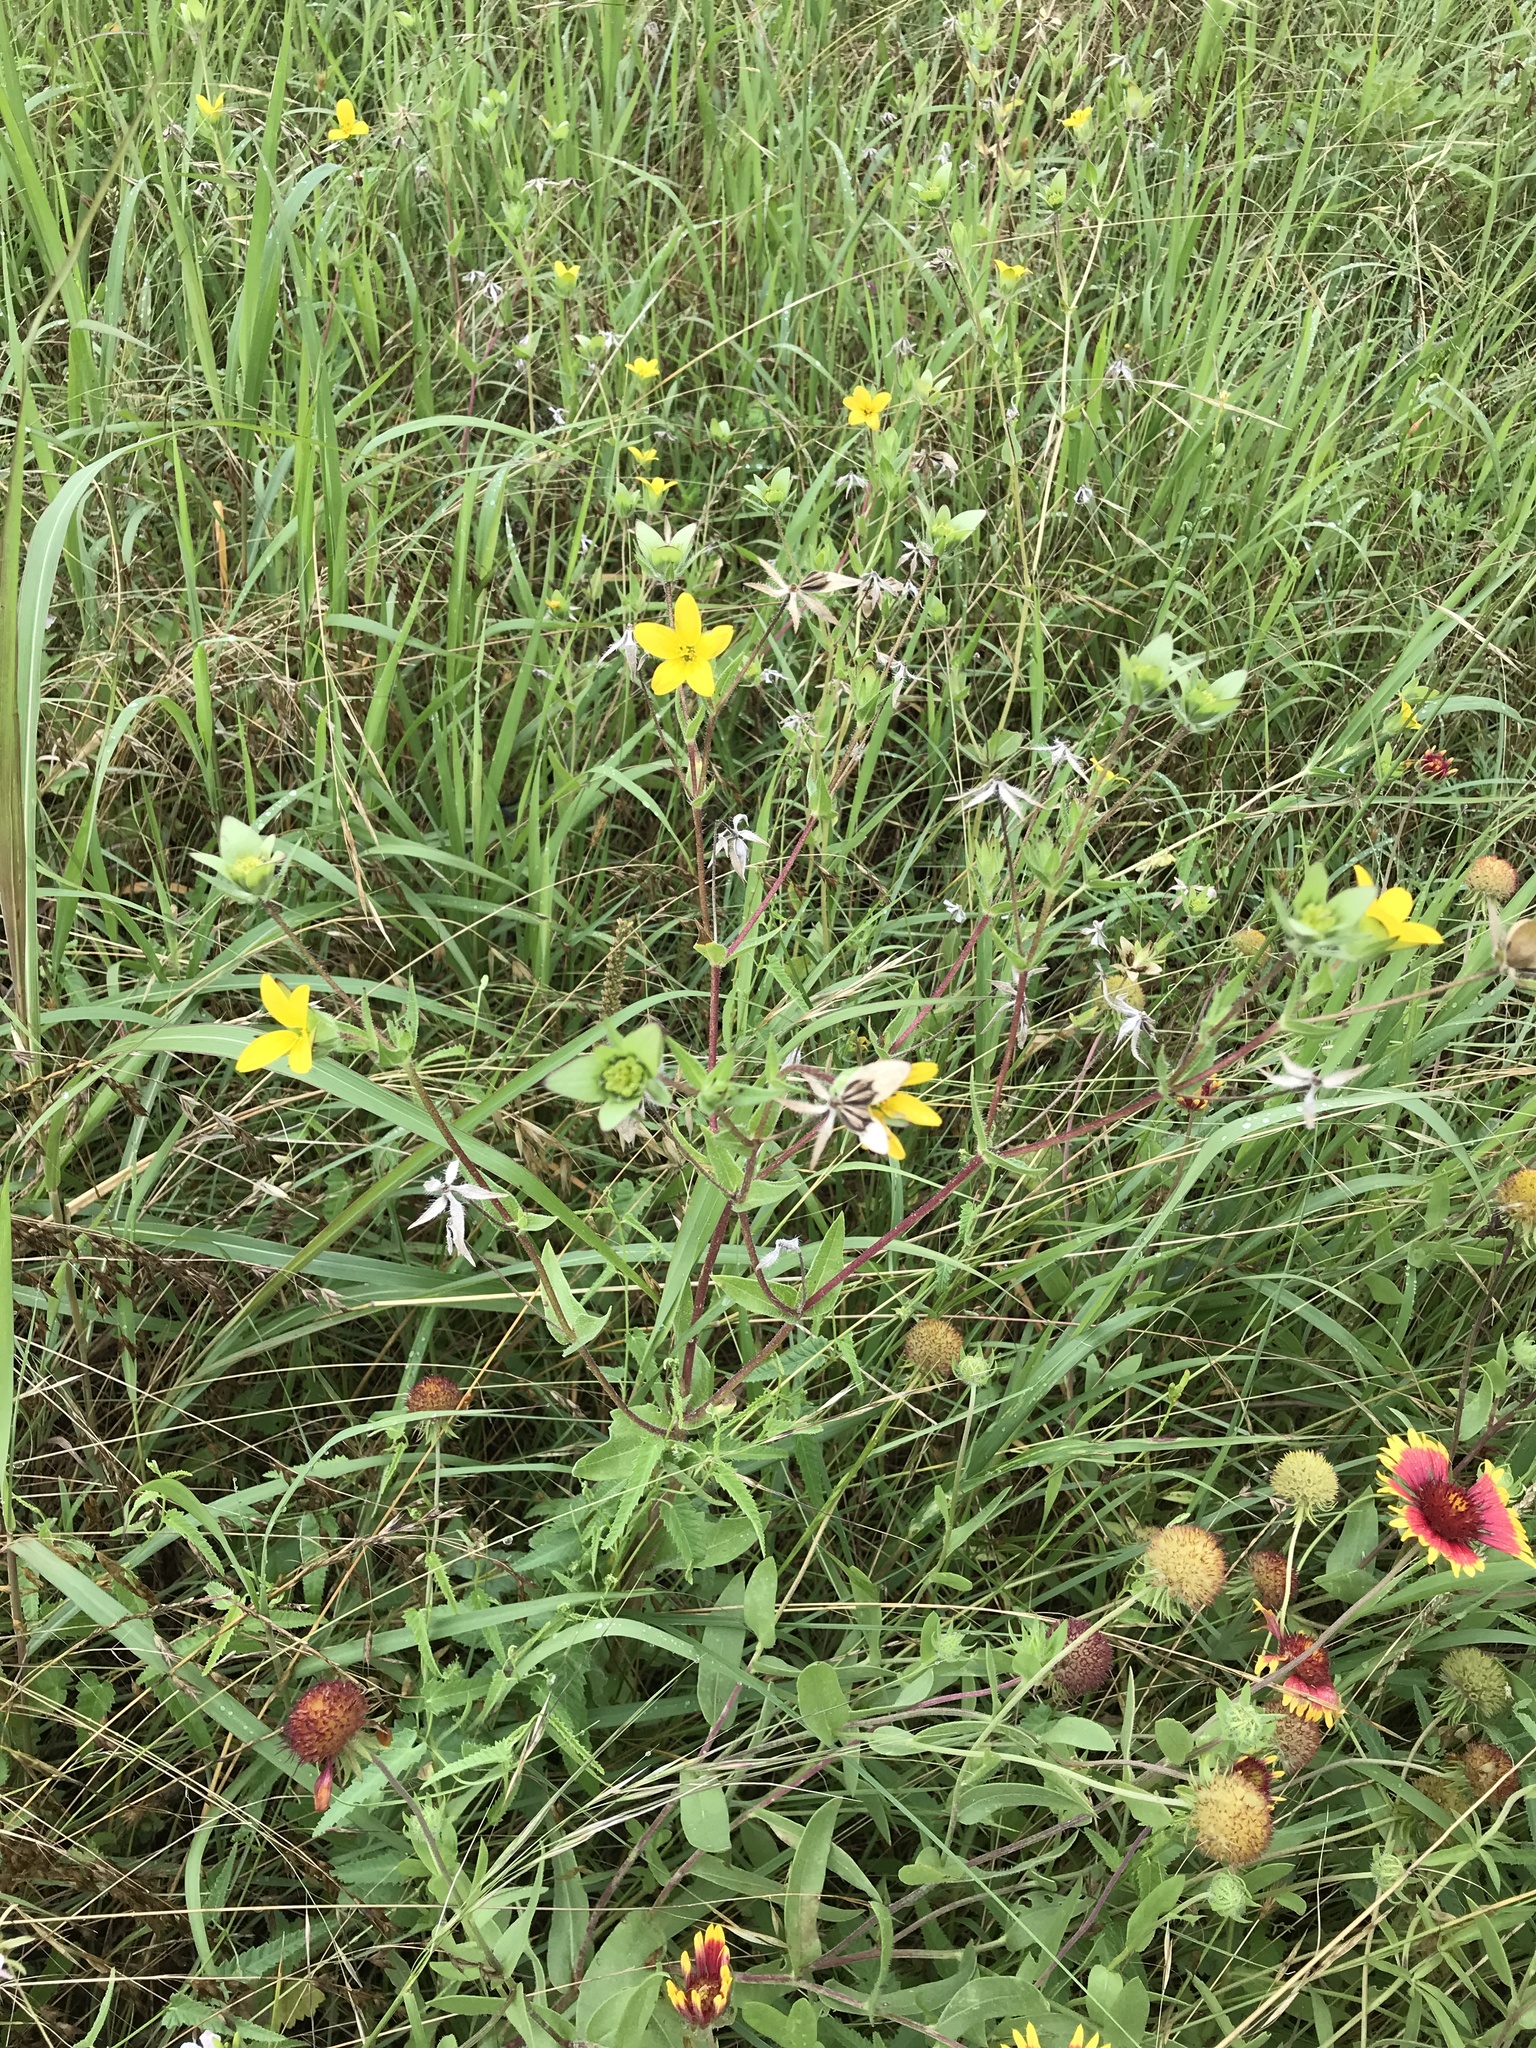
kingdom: Plantae
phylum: Tracheophyta
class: Magnoliopsida
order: Asterales
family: Asteraceae
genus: Lindheimera
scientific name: Lindheimera texana
